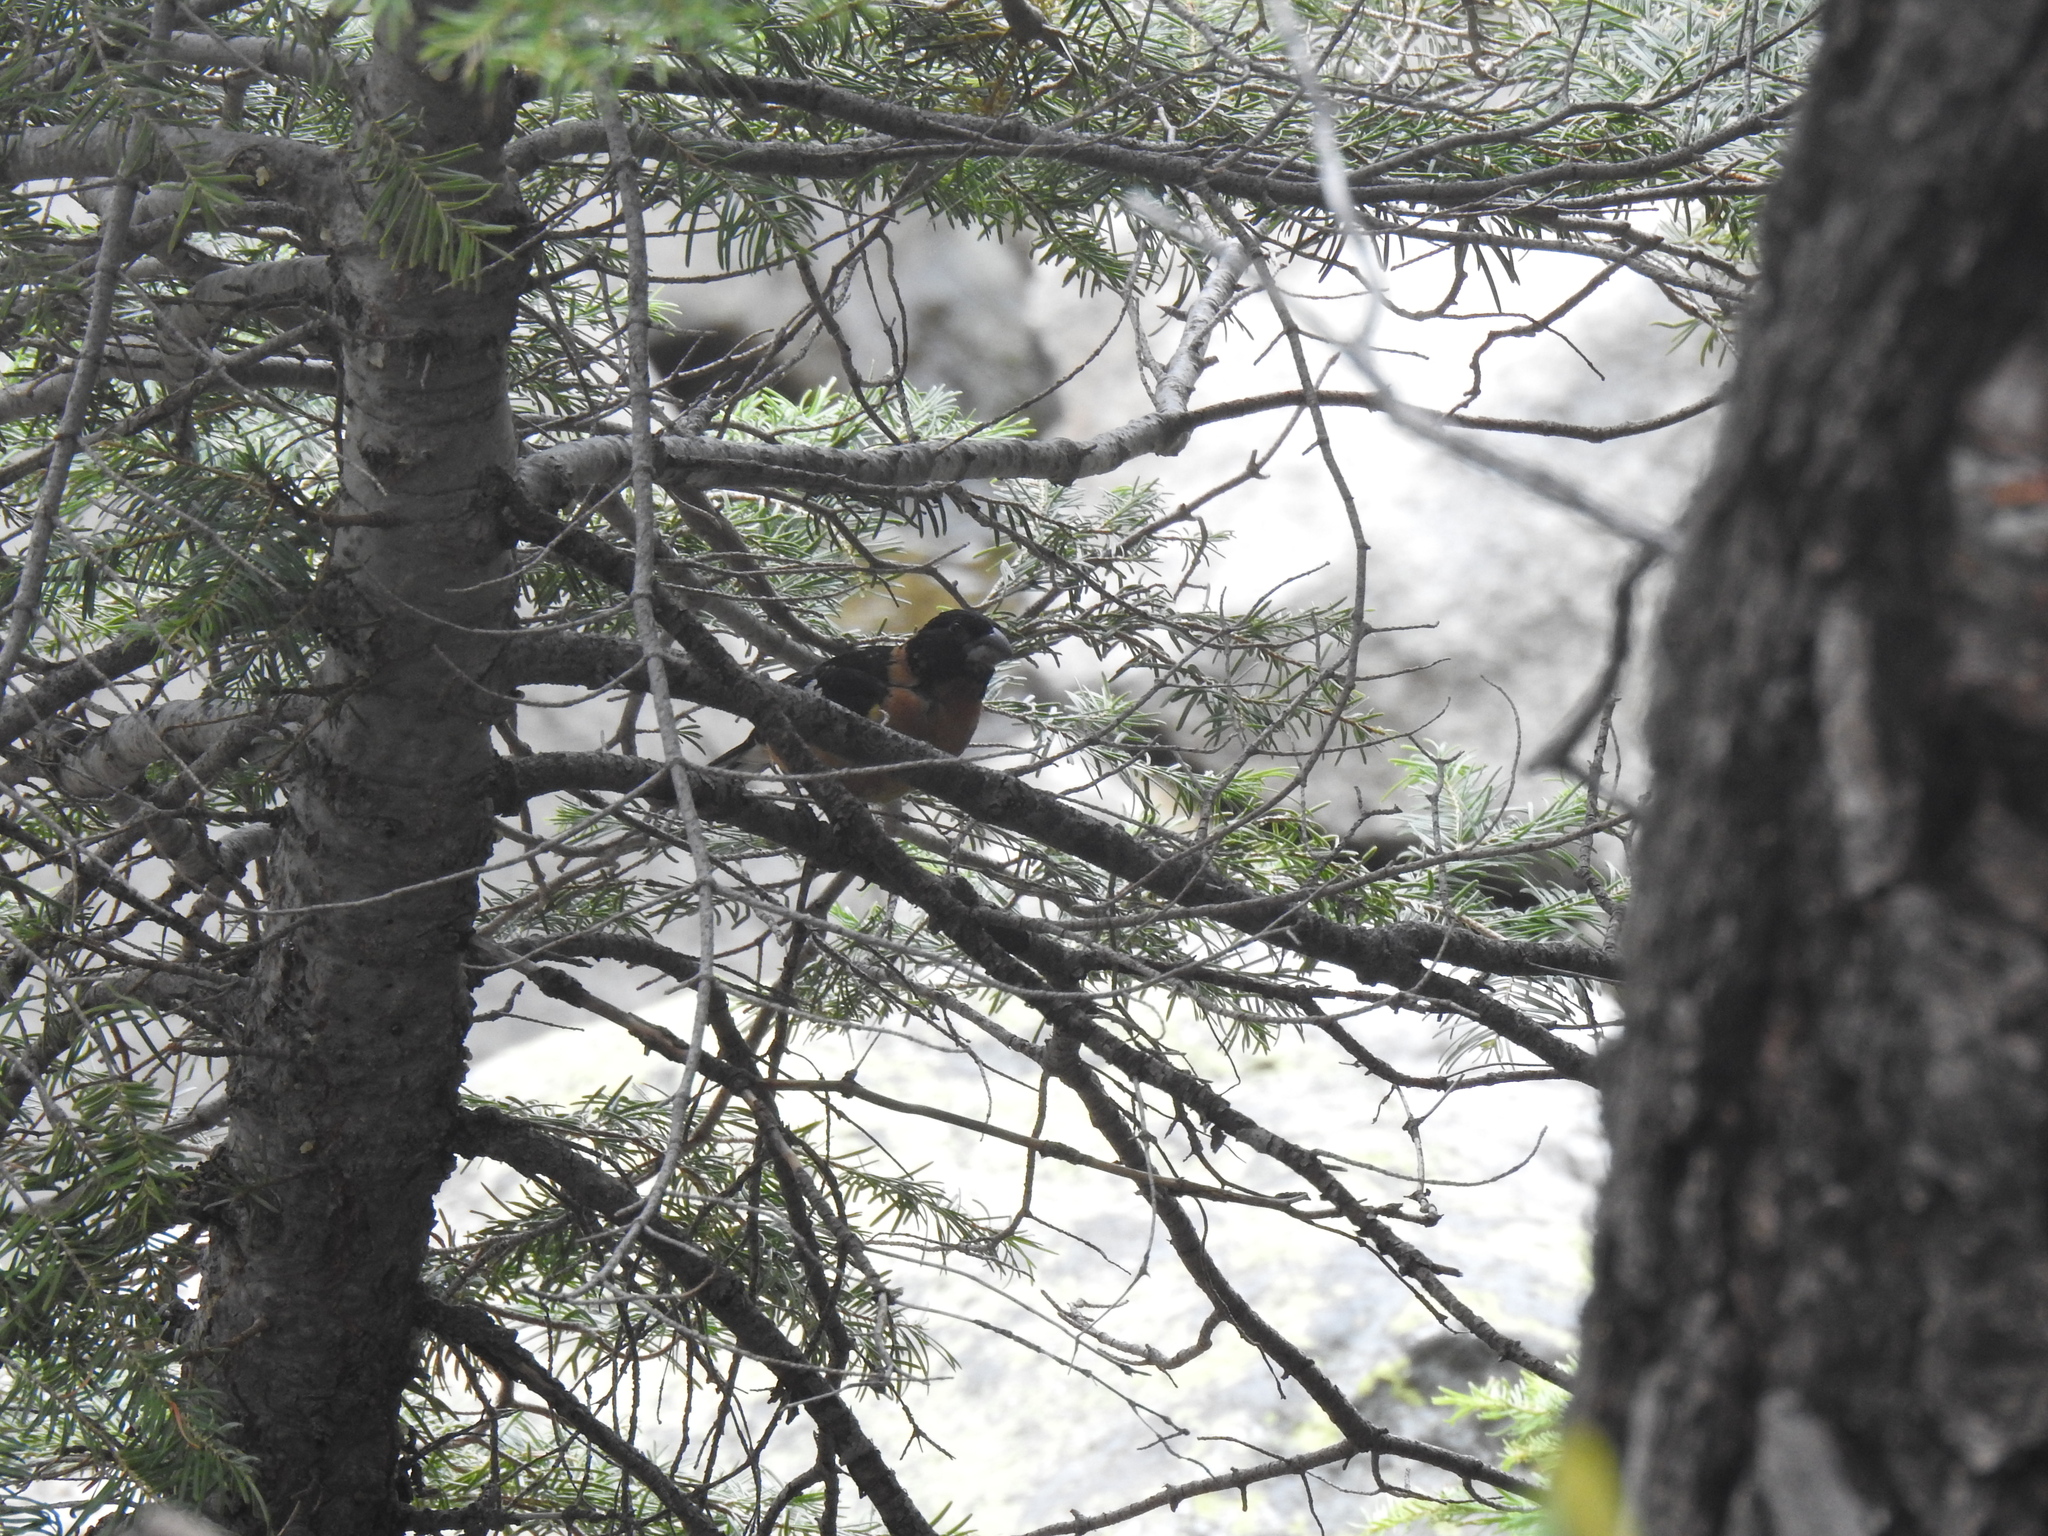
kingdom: Animalia
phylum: Chordata
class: Aves
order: Passeriformes
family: Cardinalidae
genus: Pheucticus
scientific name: Pheucticus melanocephalus
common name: Black-headed grosbeak
